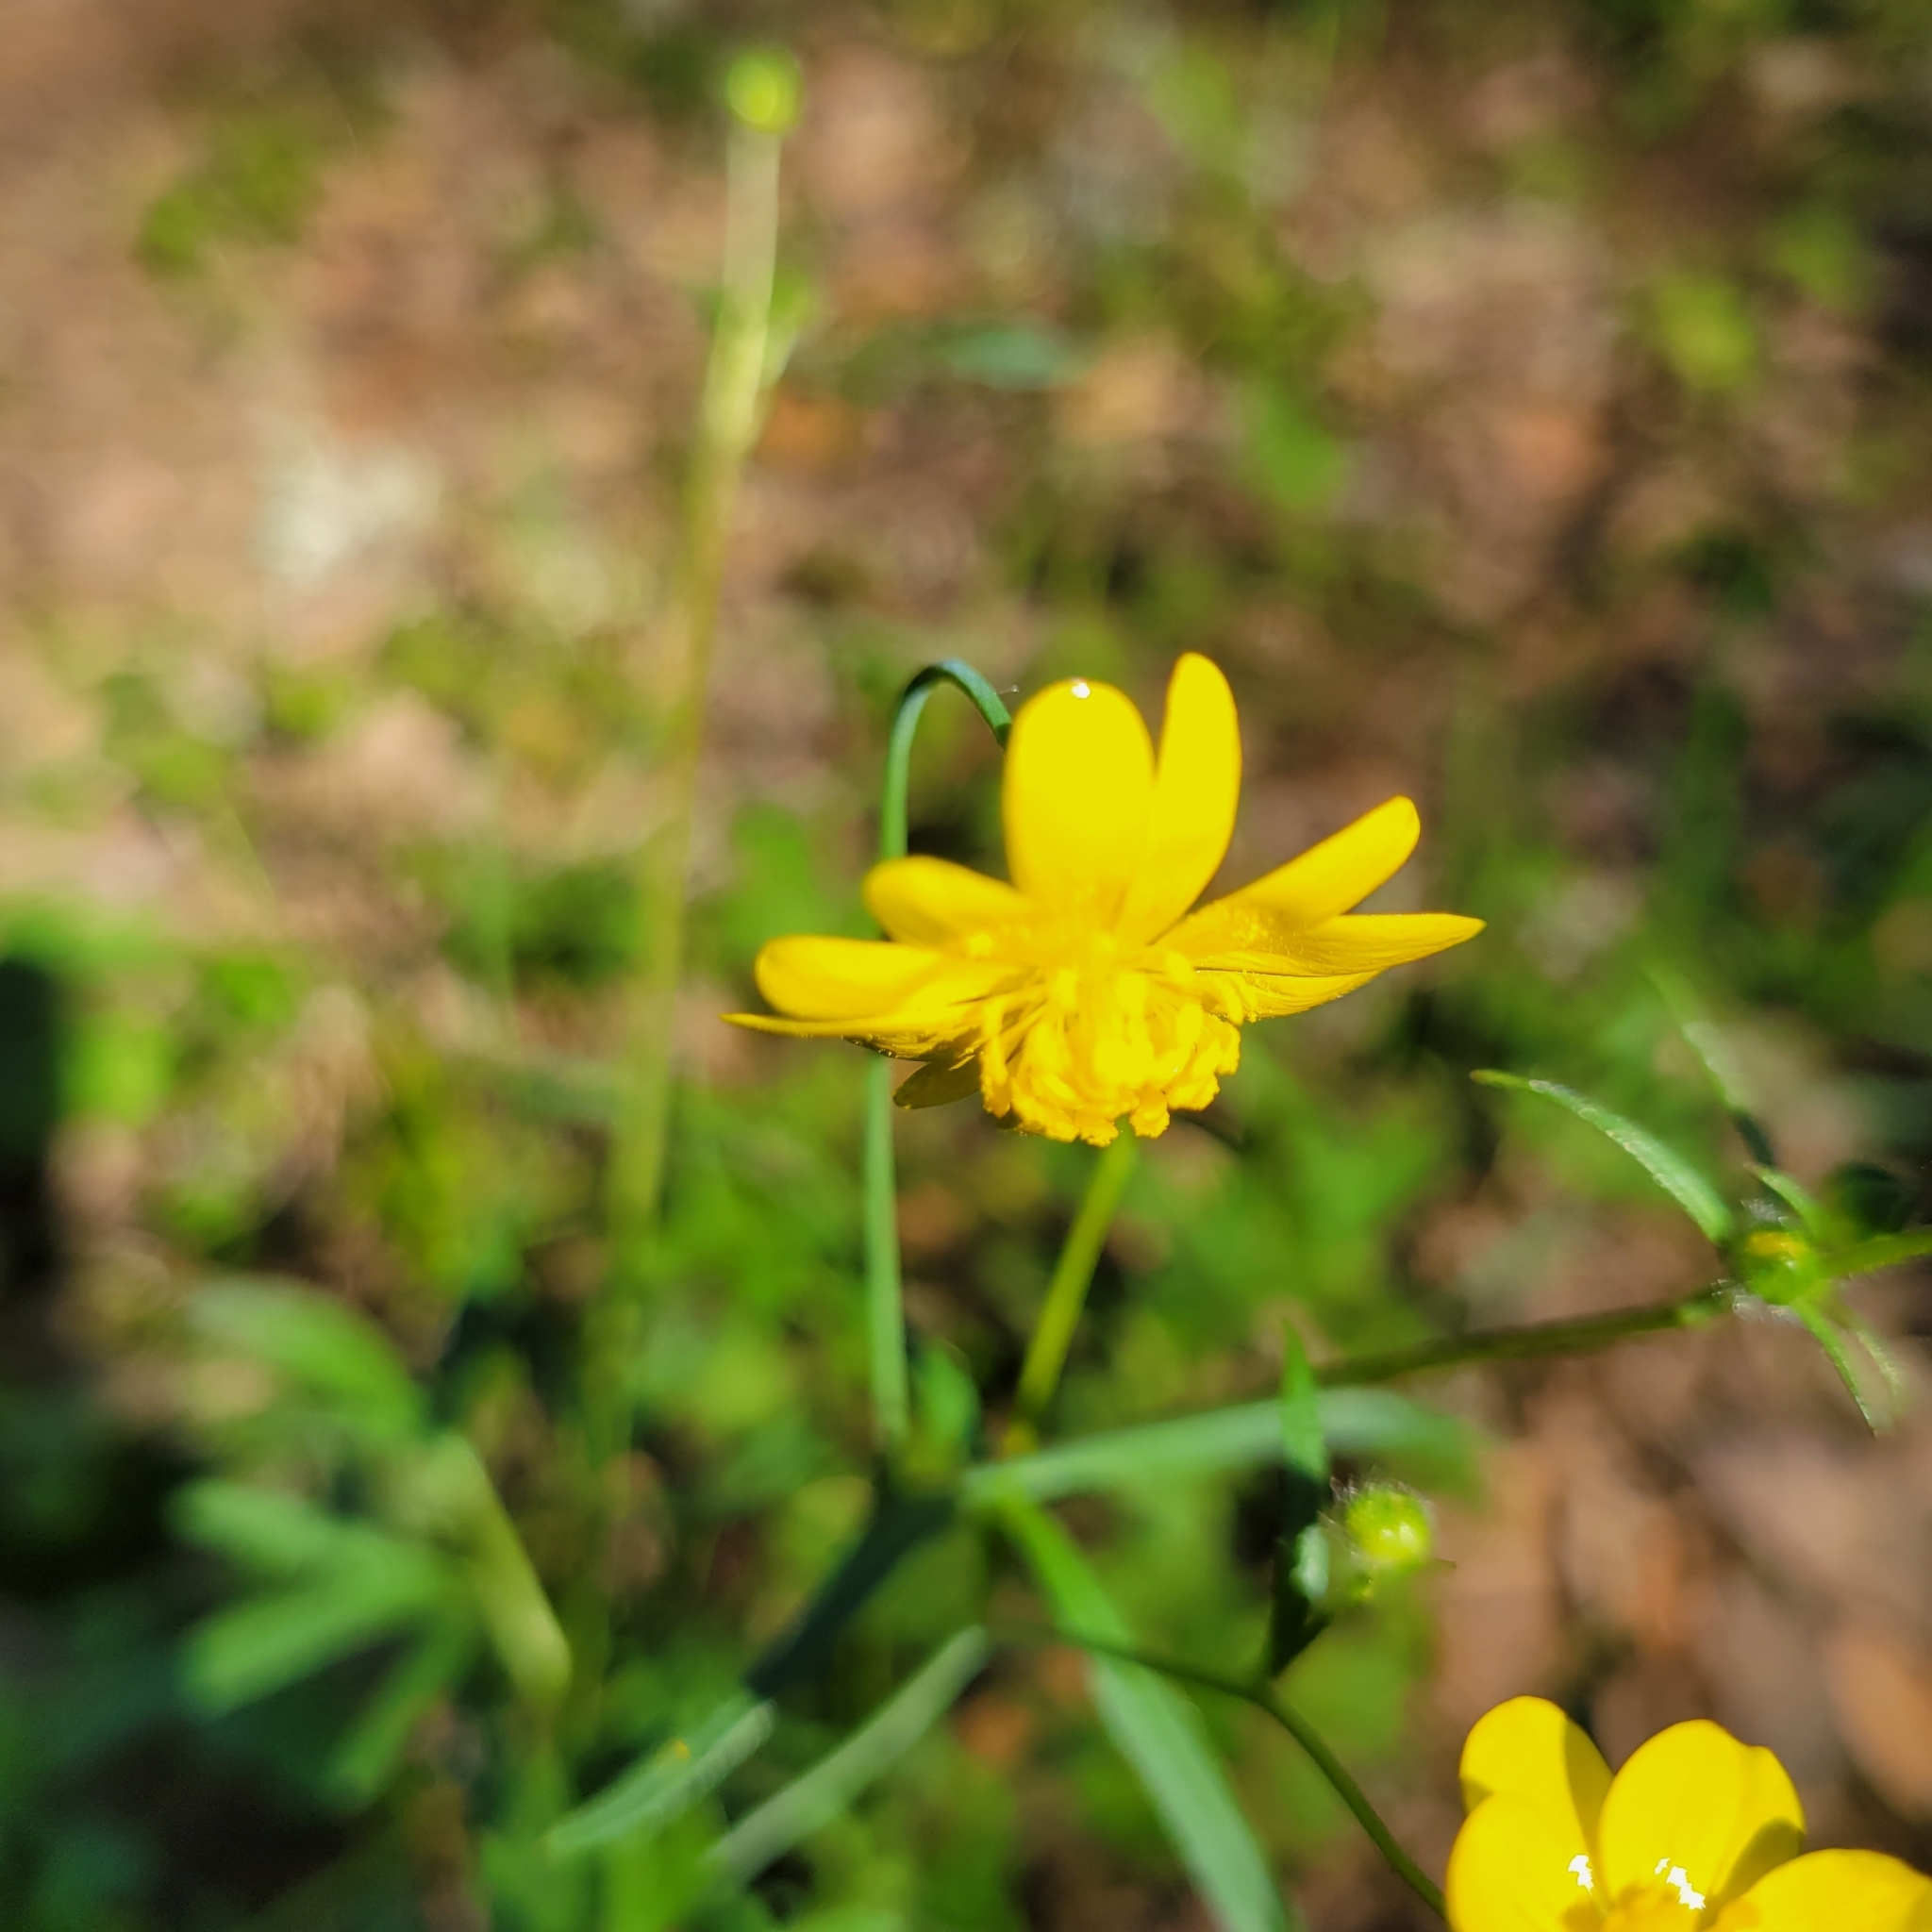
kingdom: Plantae
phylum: Tracheophyta
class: Magnoliopsida
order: Ranunculales
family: Ranunculaceae
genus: Ranunculus
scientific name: Ranunculus californicus
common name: California buttercup
